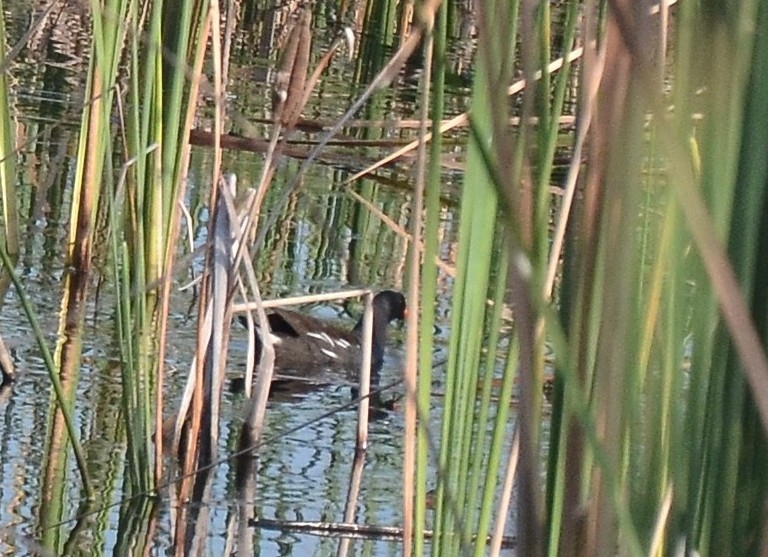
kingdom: Animalia
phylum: Chordata
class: Aves
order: Gruiformes
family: Rallidae
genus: Gallinula
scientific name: Gallinula chloropus
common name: Common moorhen
